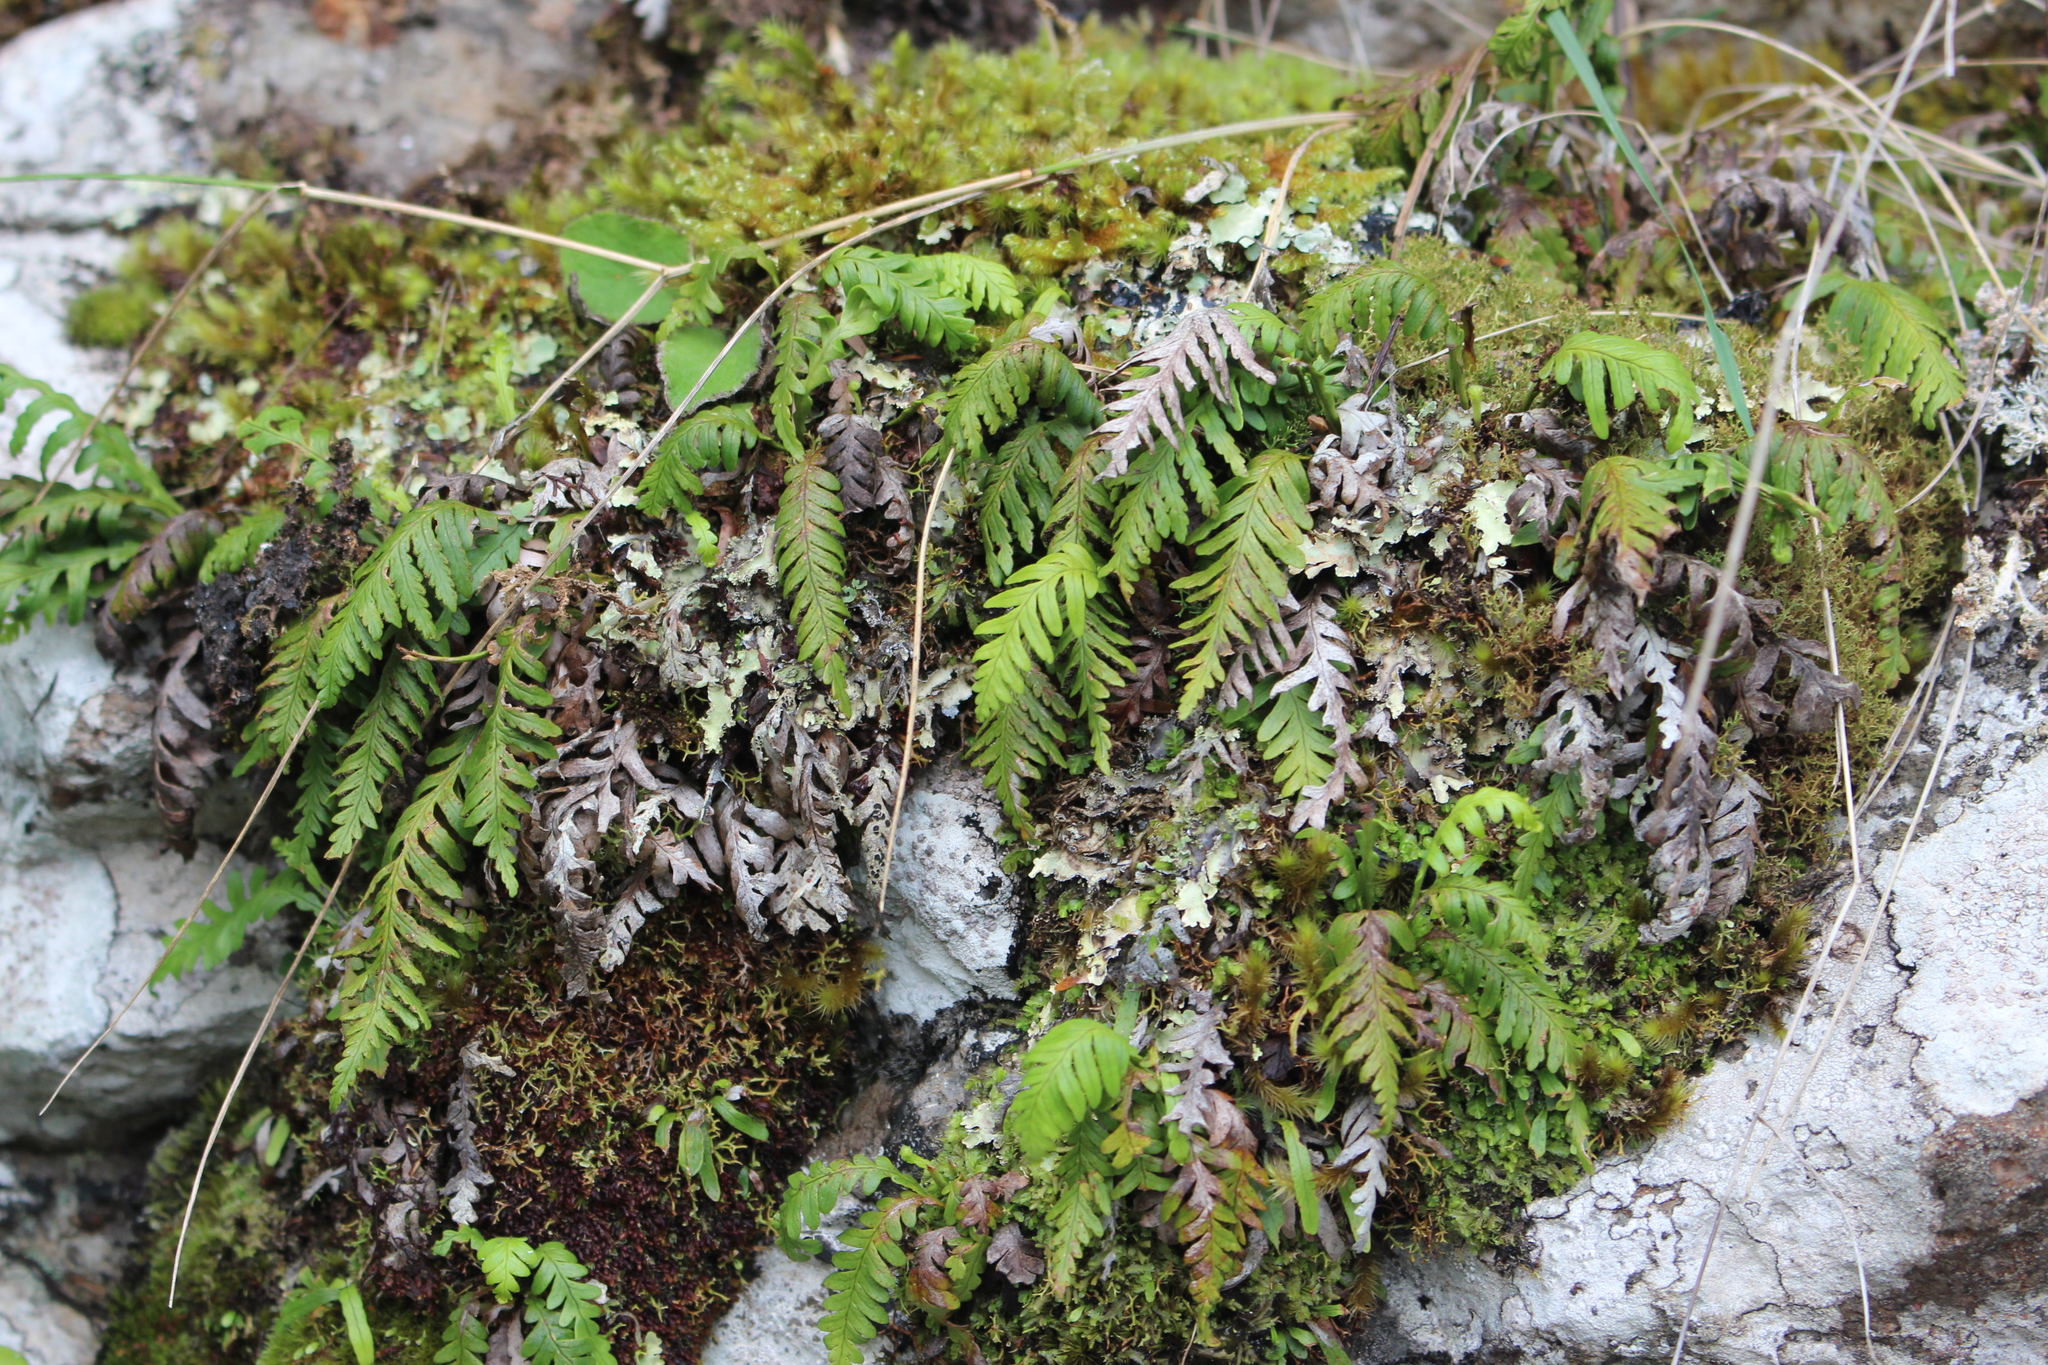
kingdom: Plantae
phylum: Tracheophyta
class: Polypodiopsida
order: Polypodiales
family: Polypodiaceae
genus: Notogrammitis
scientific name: Notogrammitis heterophylla
